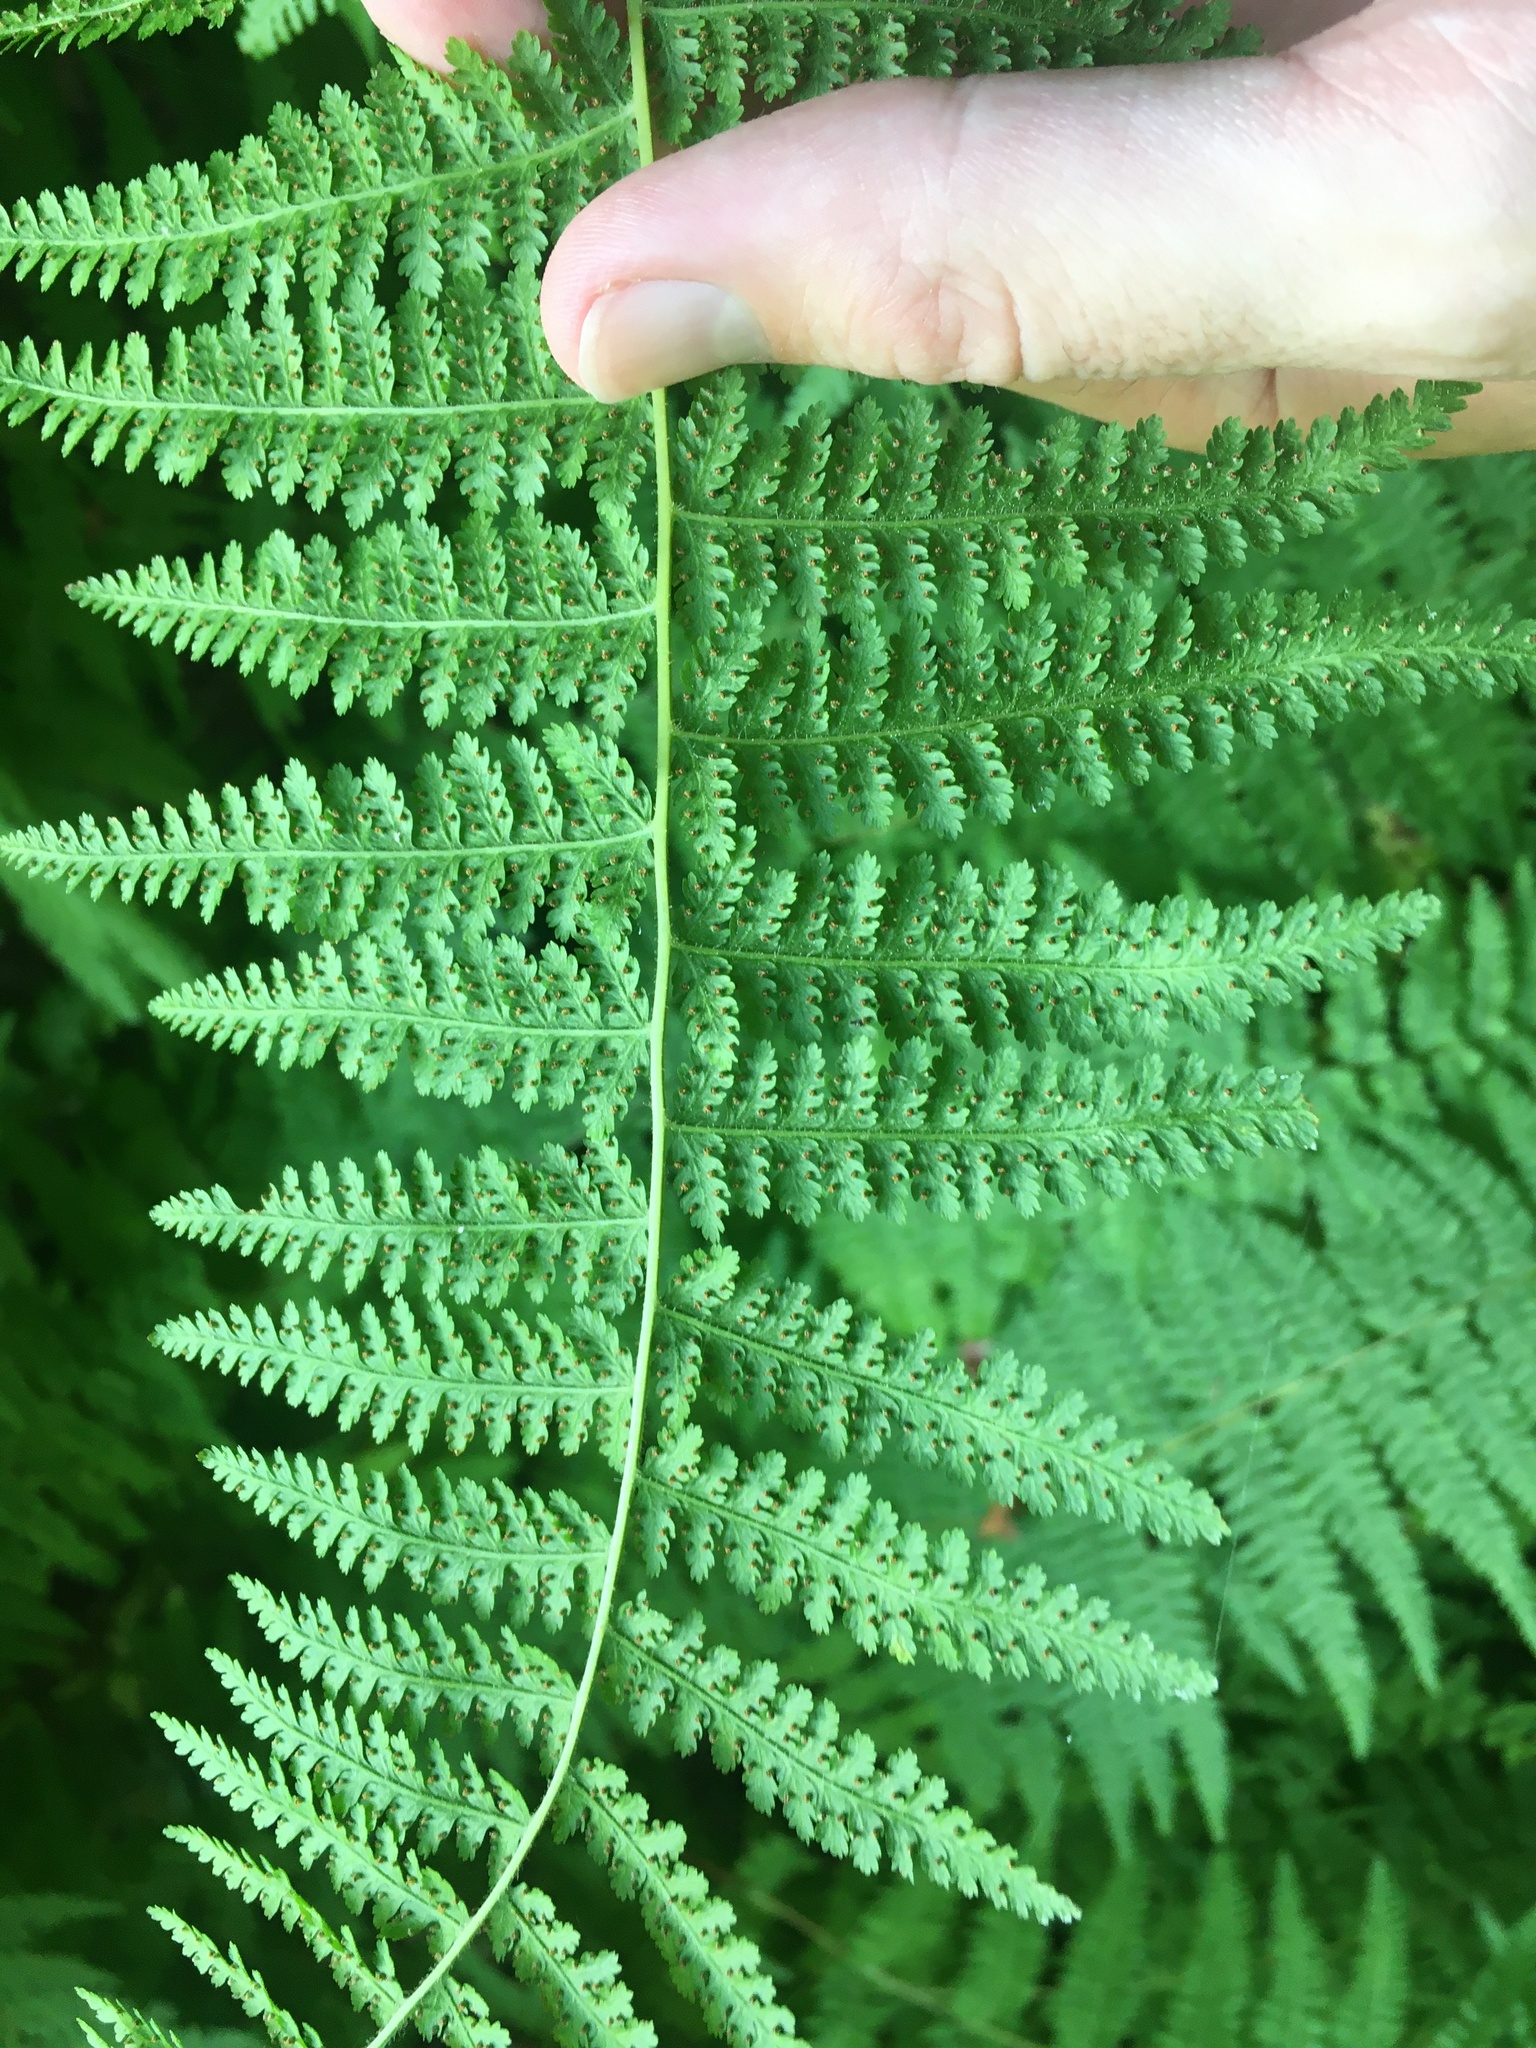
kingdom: Plantae
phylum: Tracheophyta
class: Polypodiopsida
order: Polypodiales
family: Dennstaedtiaceae
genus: Sitobolium
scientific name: Sitobolium punctilobum
